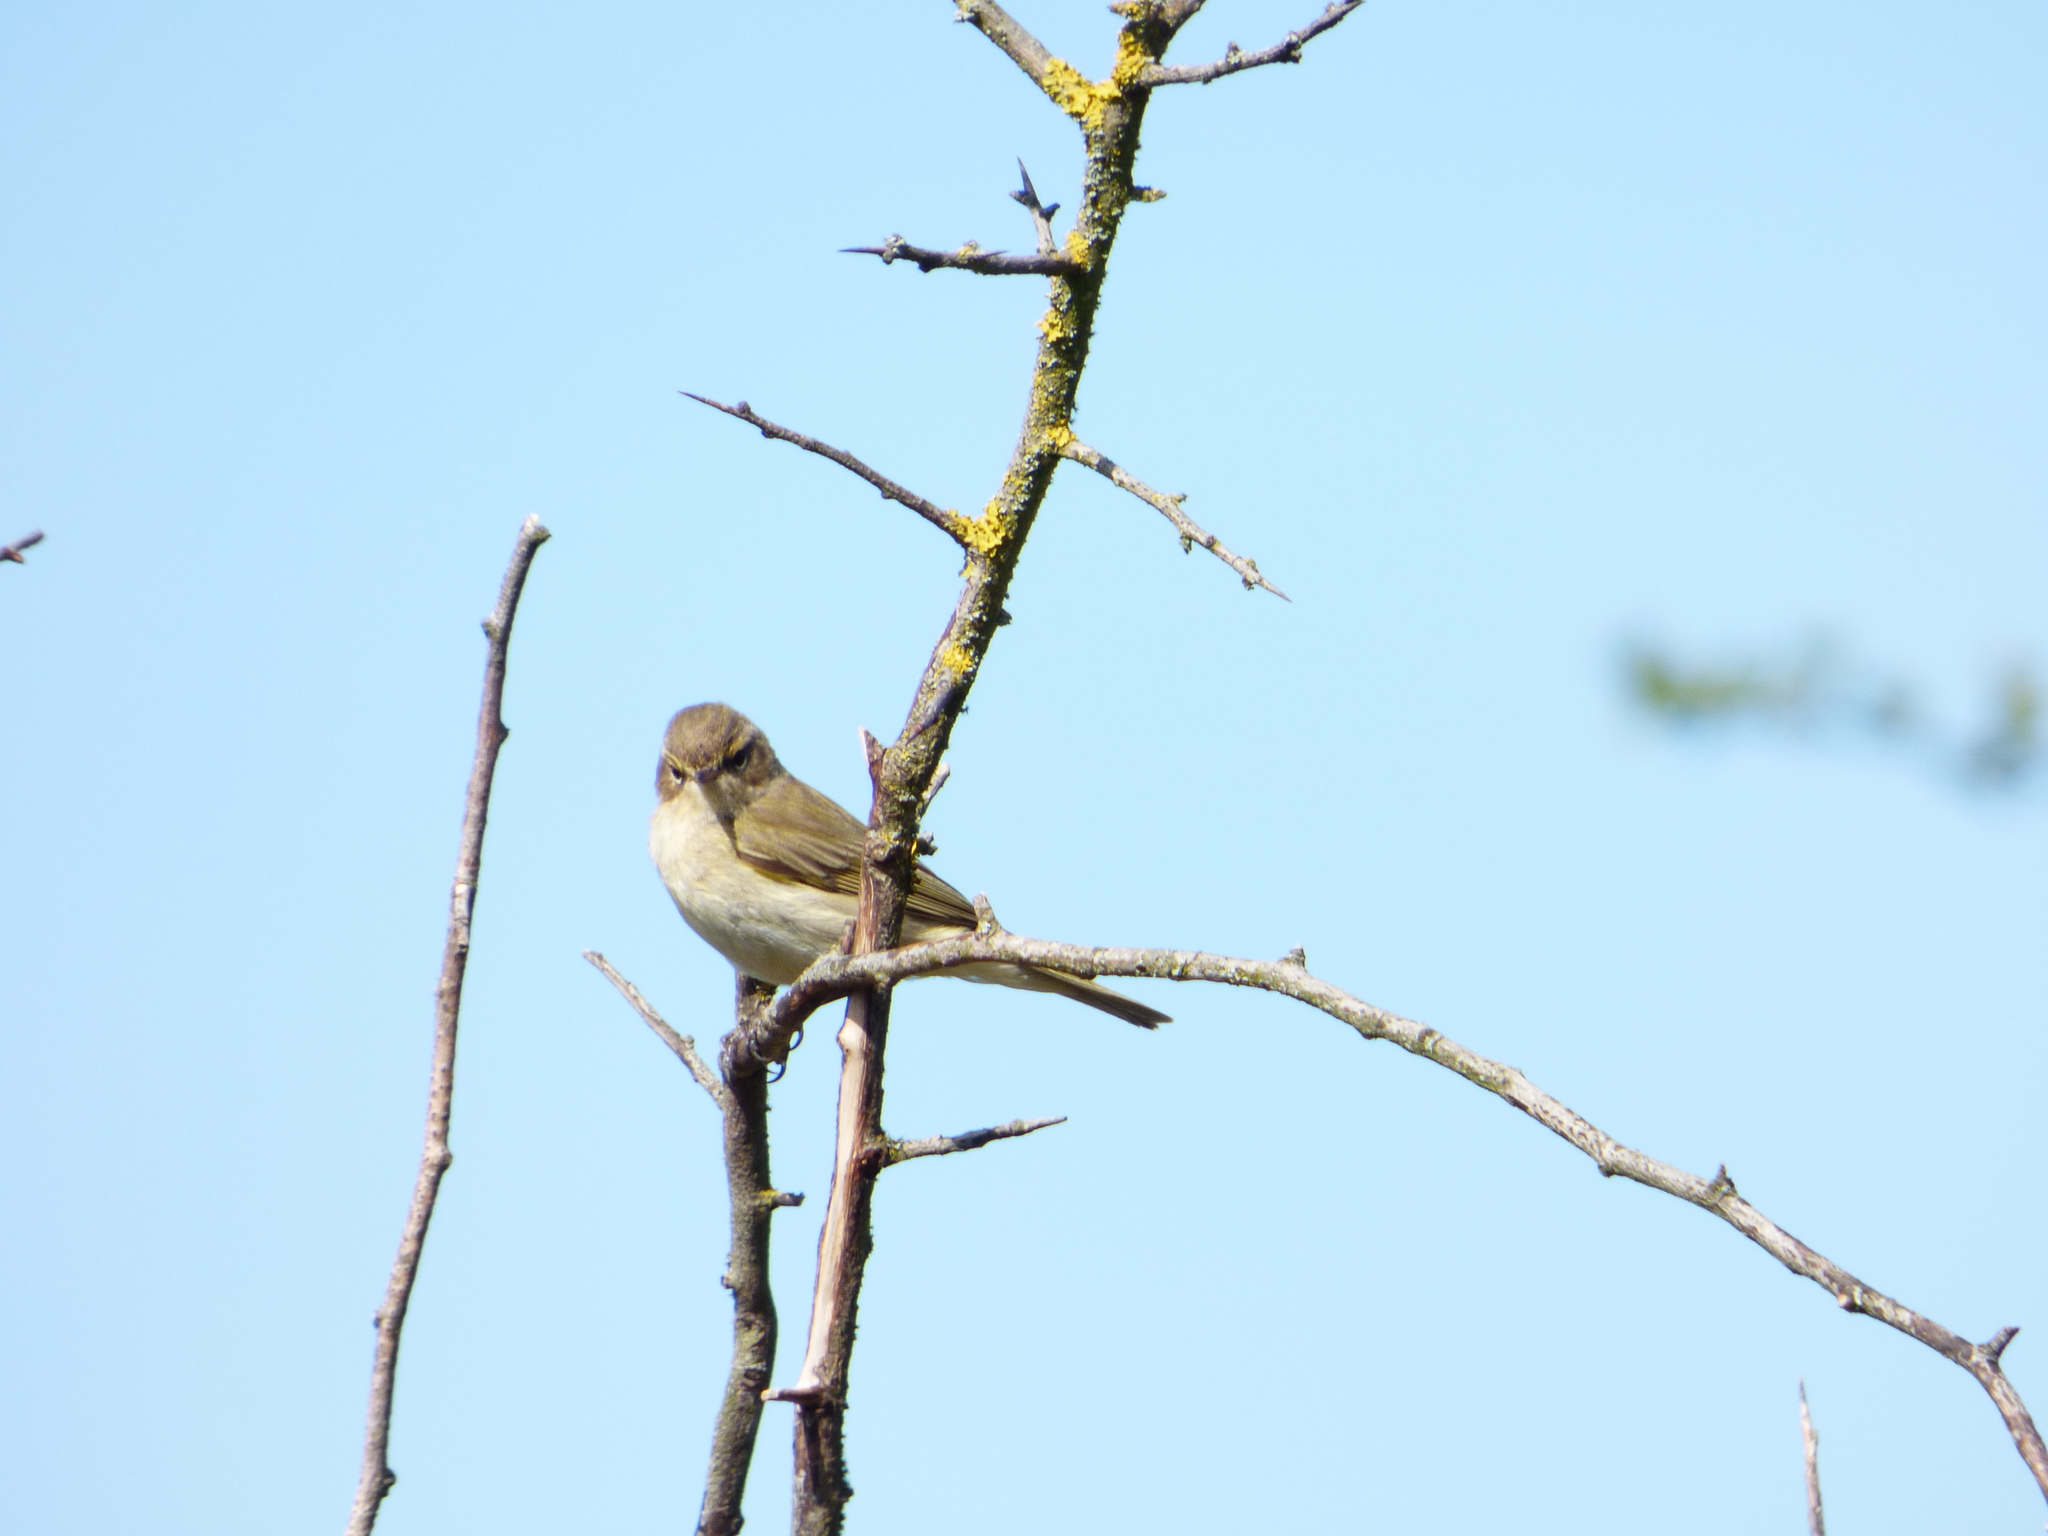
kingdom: Animalia
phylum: Chordata
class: Aves
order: Passeriformes
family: Phylloscopidae
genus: Phylloscopus
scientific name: Phylloscopus collybita
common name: Common chiffchaff
